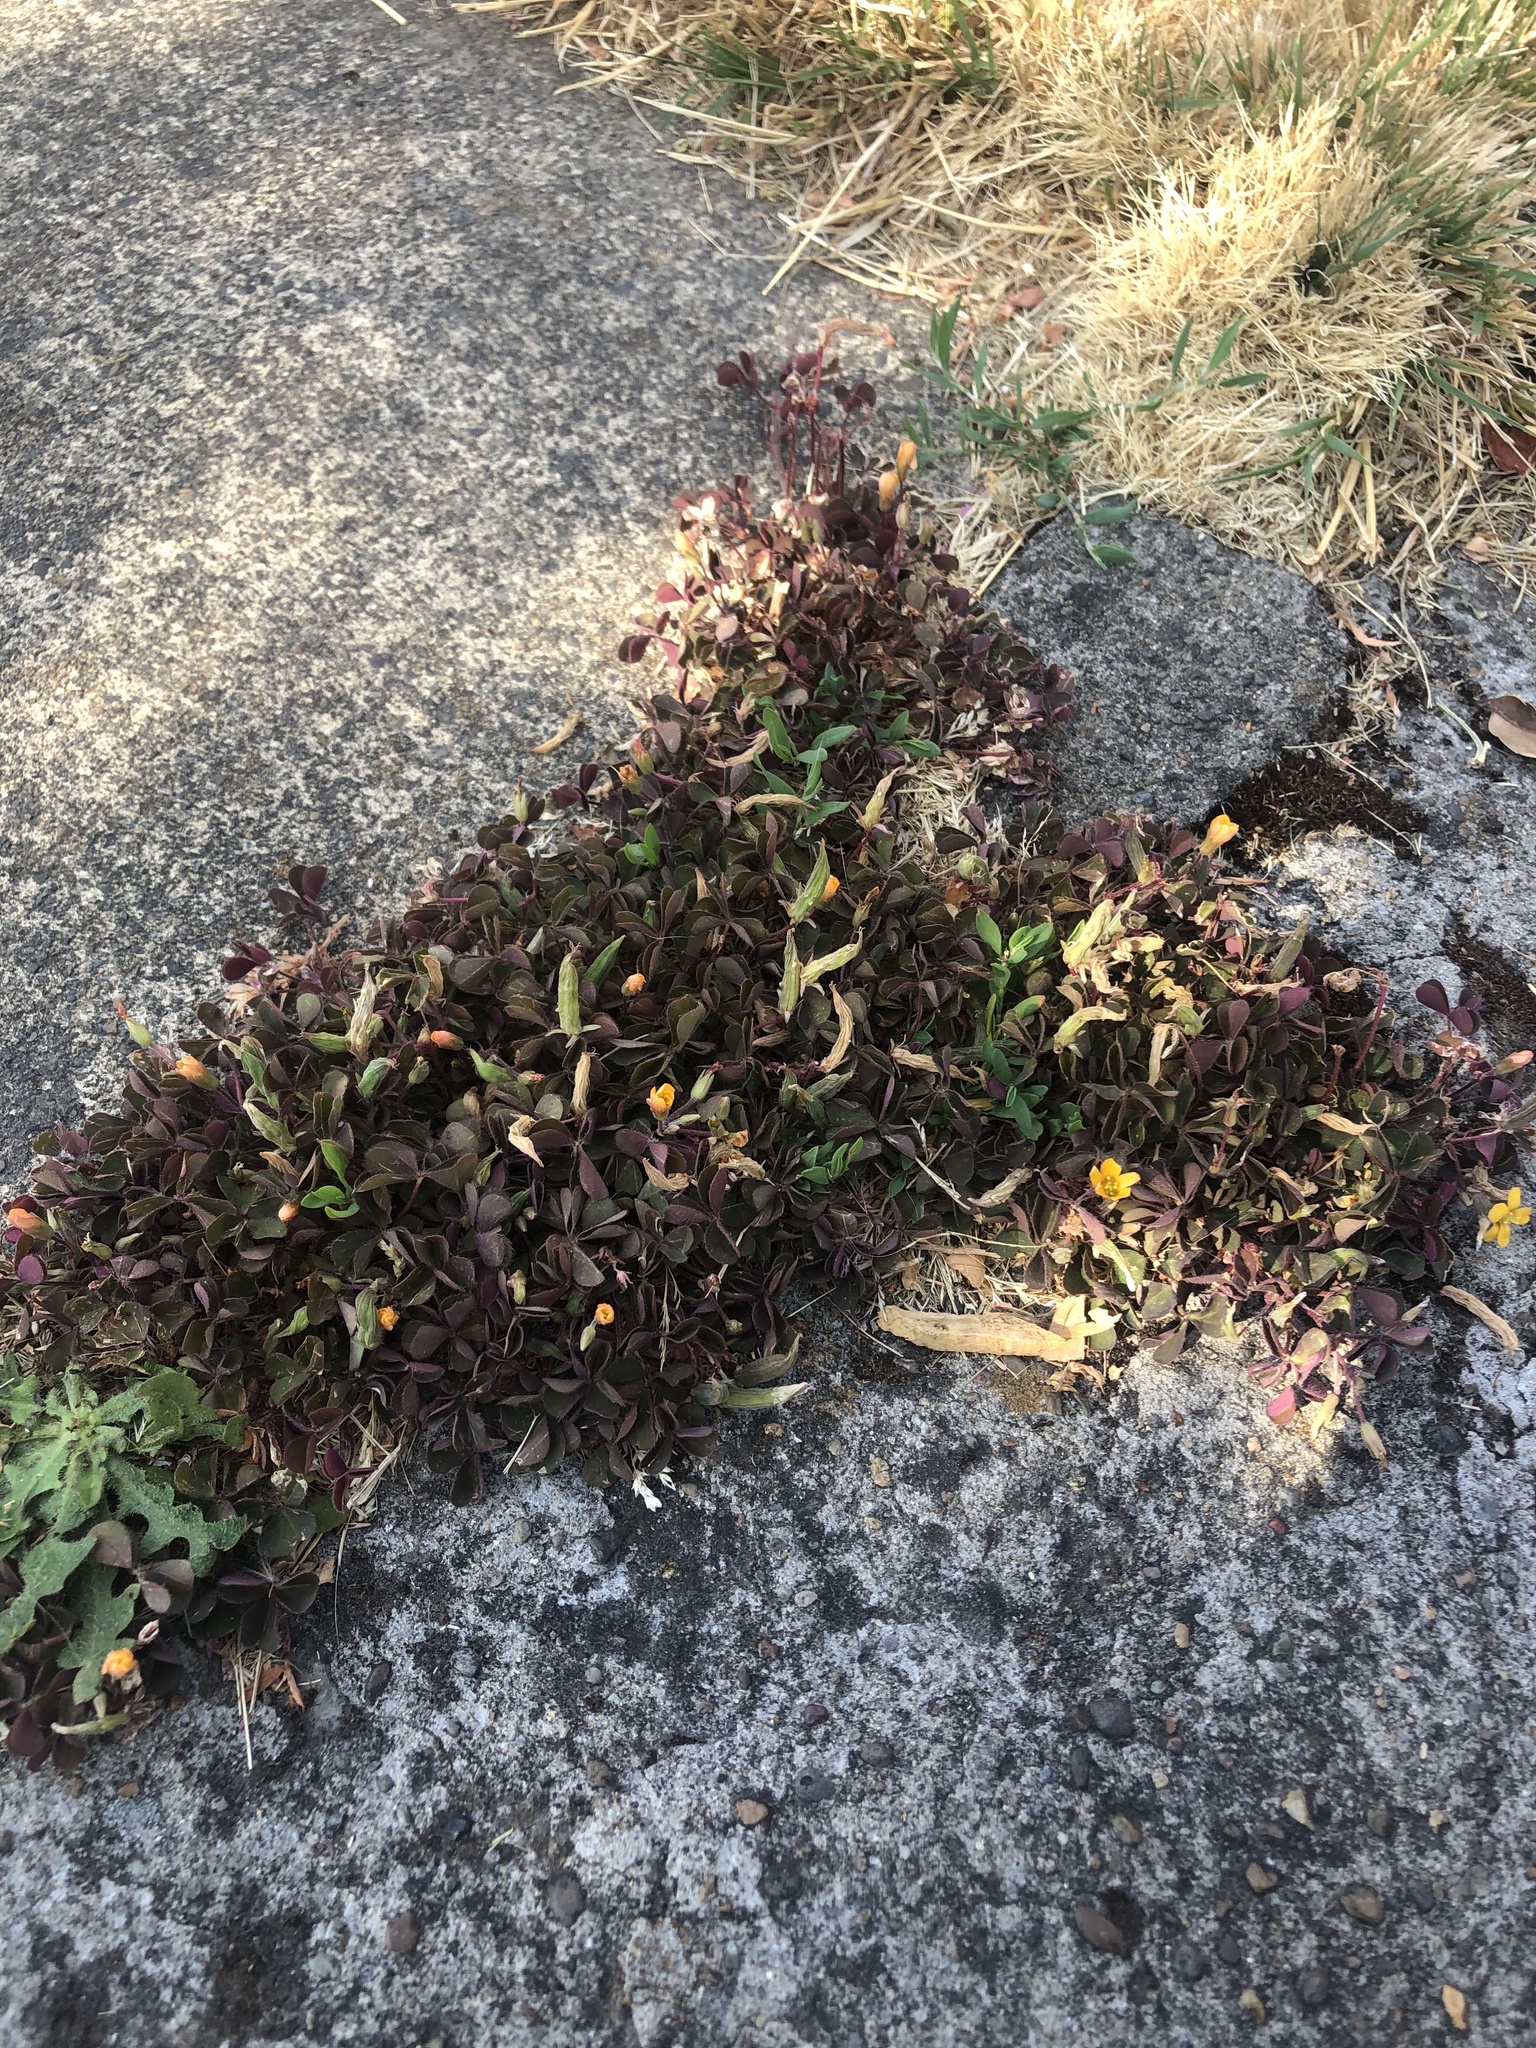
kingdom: Plantae
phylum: Tracheophyta
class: Magnoliopsida
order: Oxalidales
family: Oxalidaceae
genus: Oxalis
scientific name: Oxalis corniculata
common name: Procumbent yellow-sorrel
